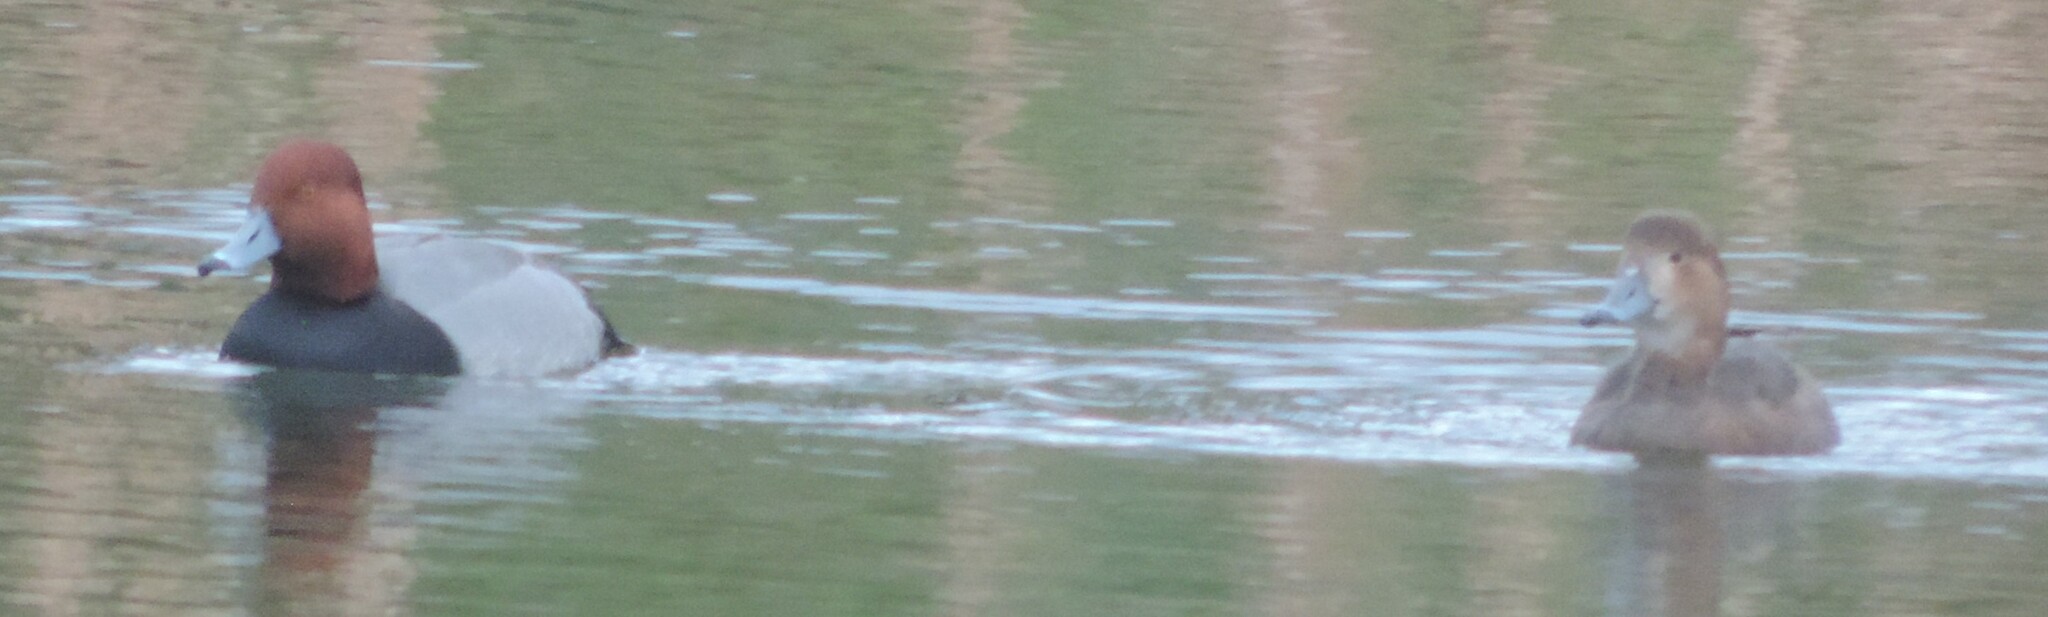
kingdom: Animalia
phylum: Chordata
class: Aves
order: Anseriformes
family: Anatidae
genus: Aythya
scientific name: Aythya americana
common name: Redhead
